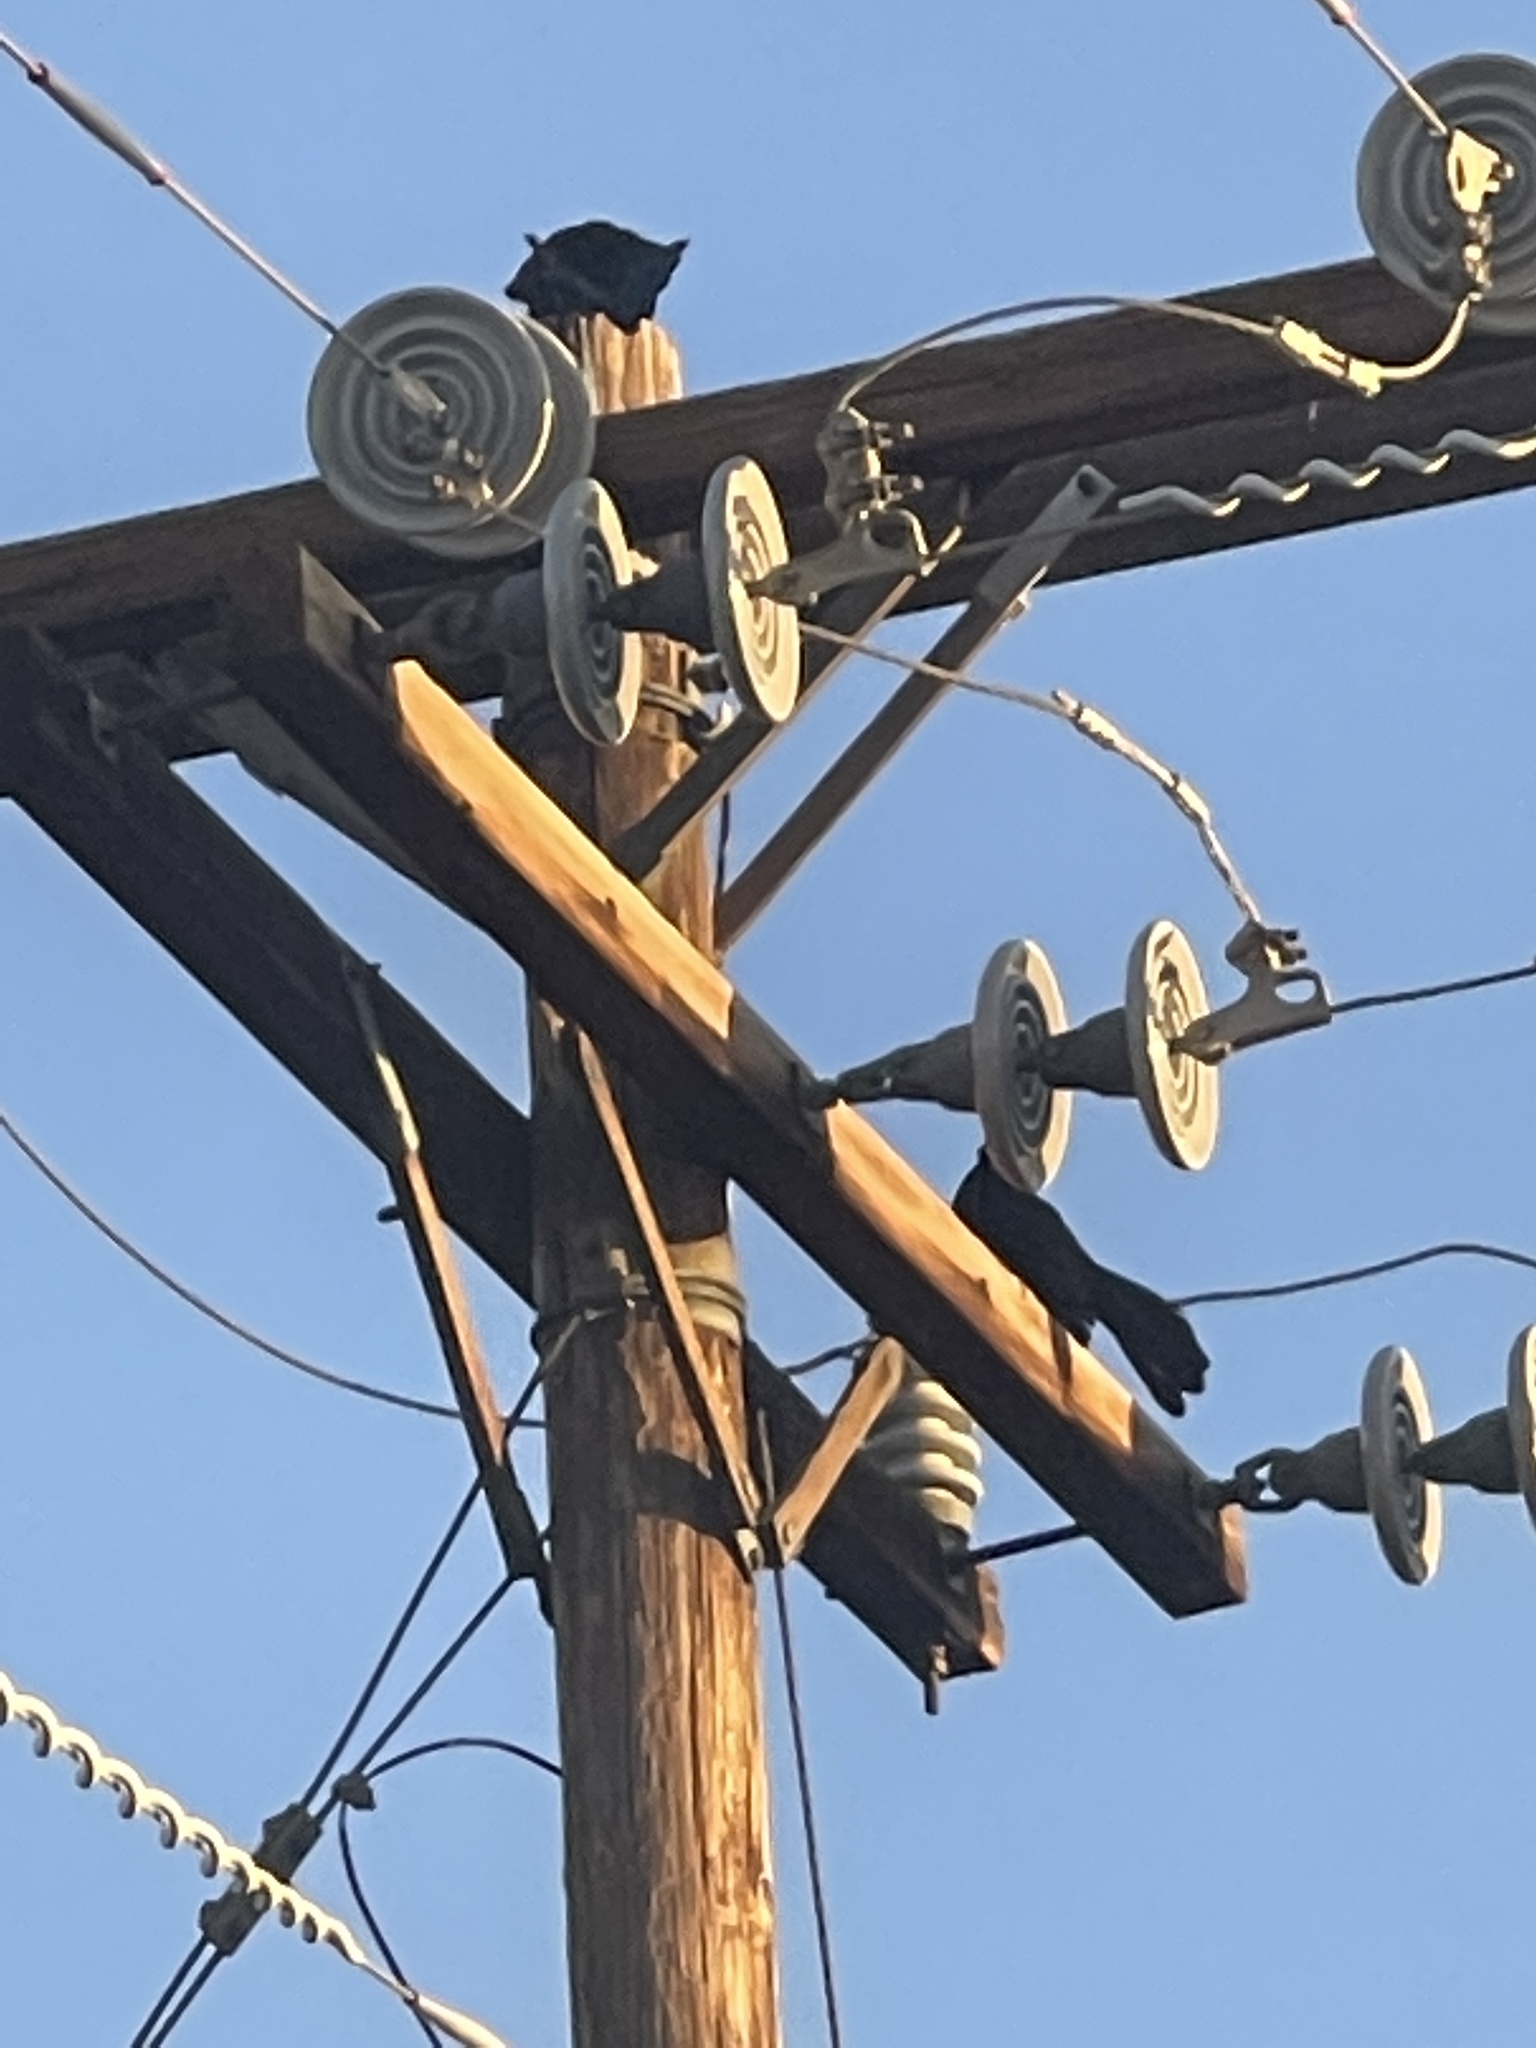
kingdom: Animalia
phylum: Chordata
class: Aves
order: Passeriformes
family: Icteridae
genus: Quiscalus
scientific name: Quiscalus mexicanus
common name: Great-tailed grackle
